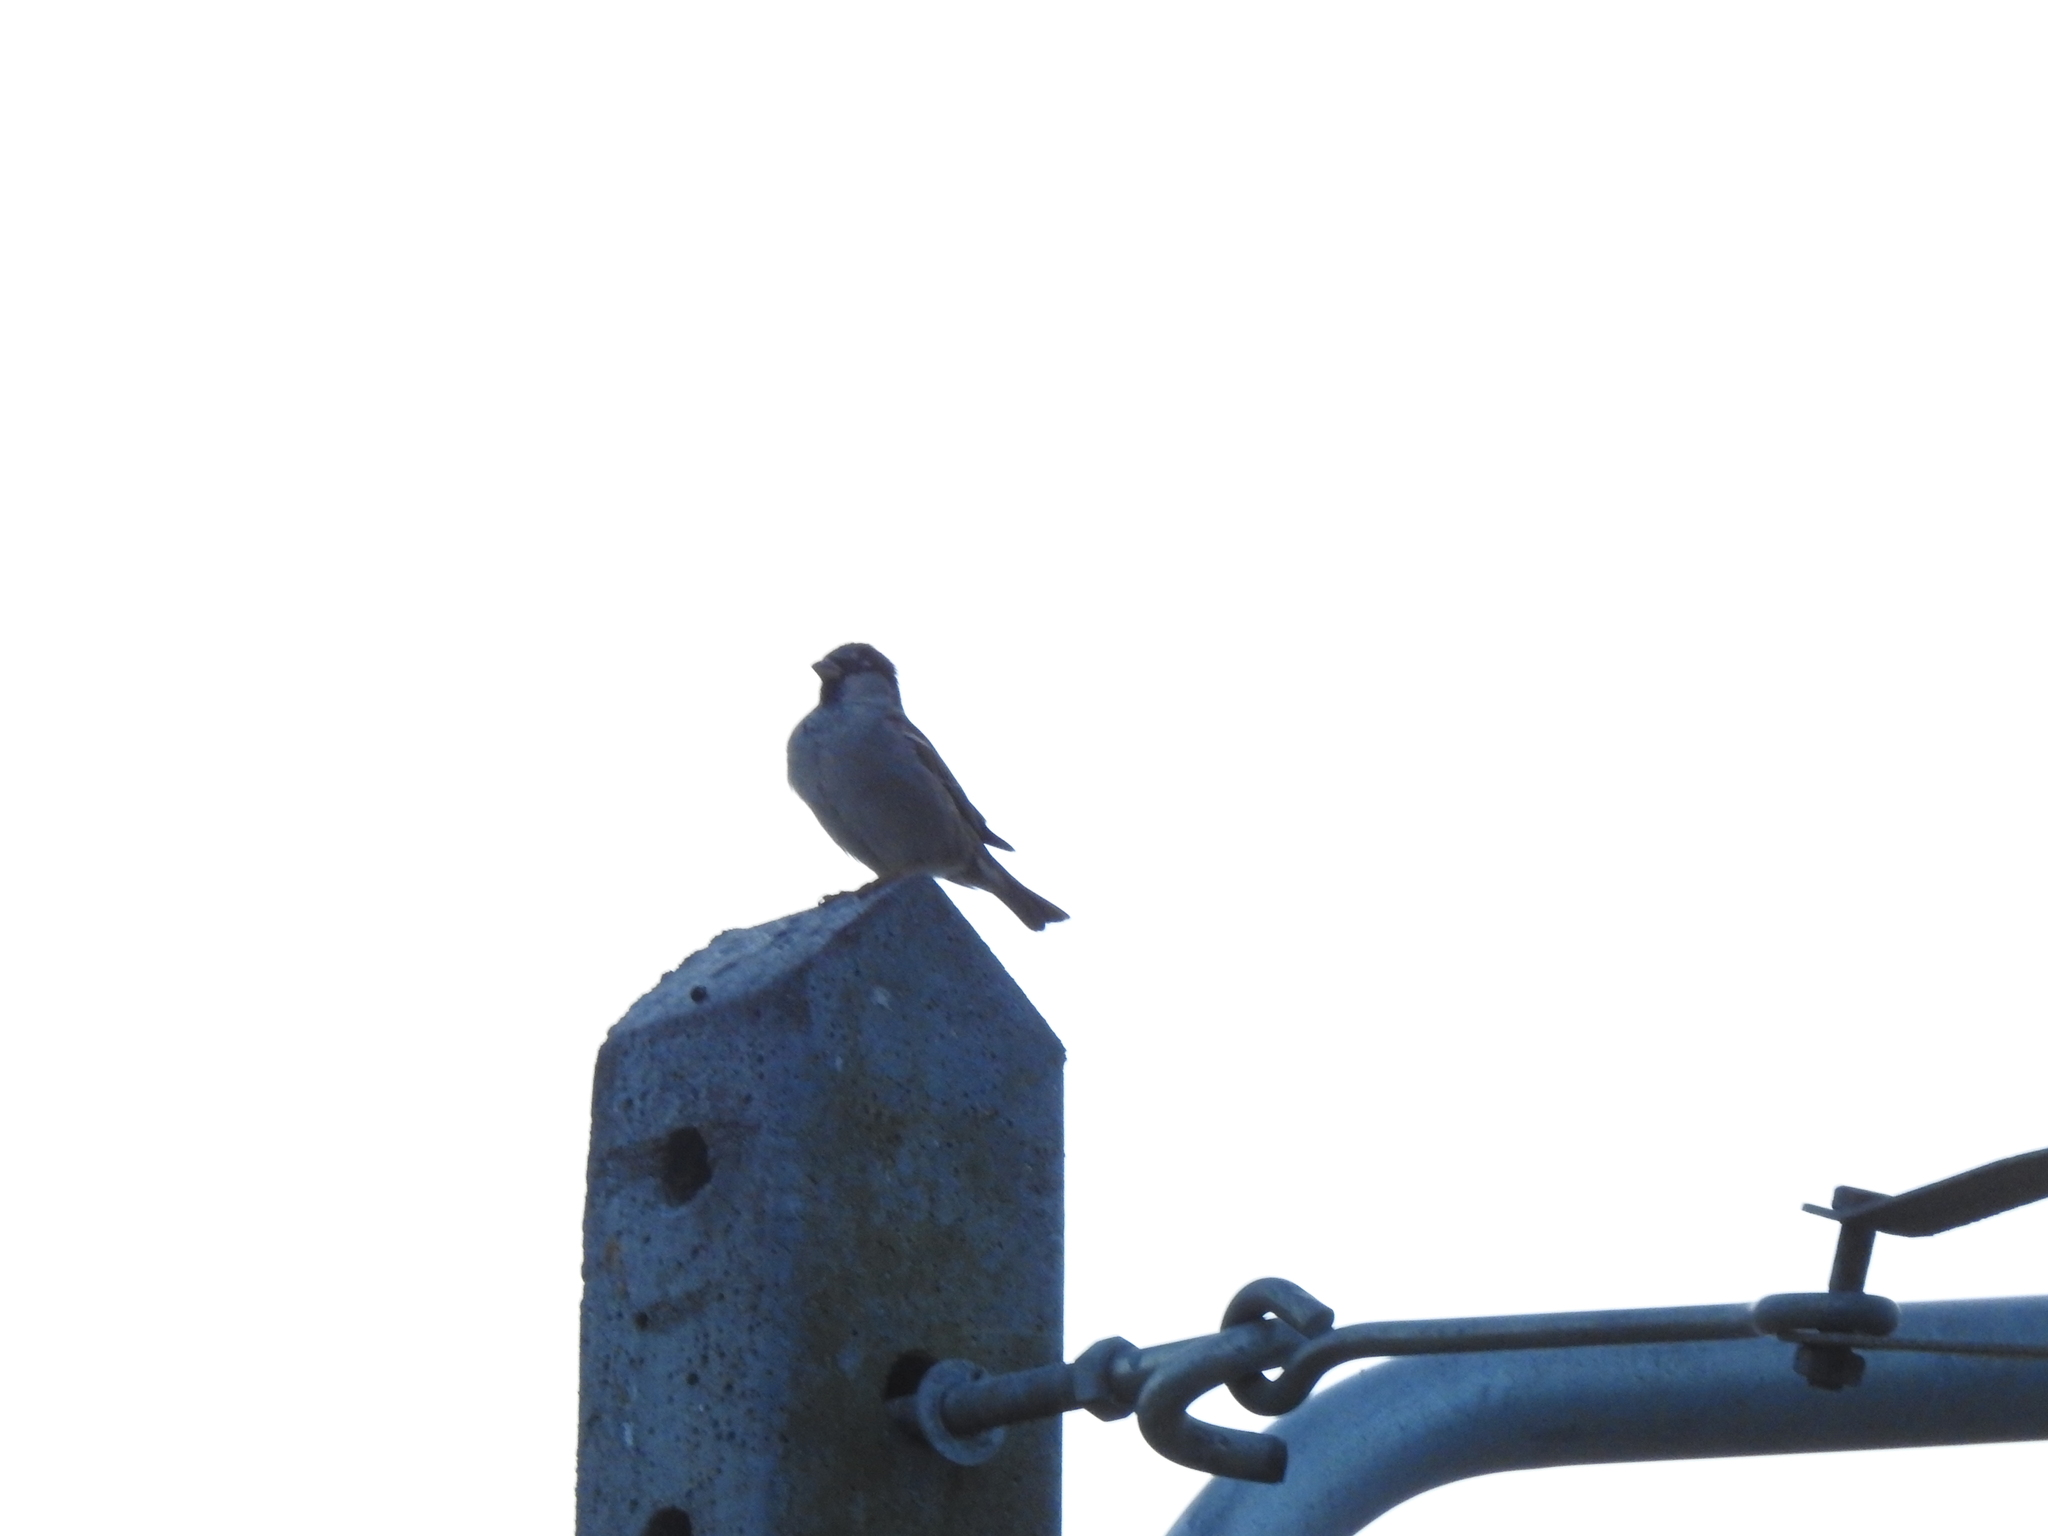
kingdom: Animalia
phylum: Chordata
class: Aves
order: Passeriformes
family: Passeridae
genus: Passer
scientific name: Passer domesticus
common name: House sparrow
